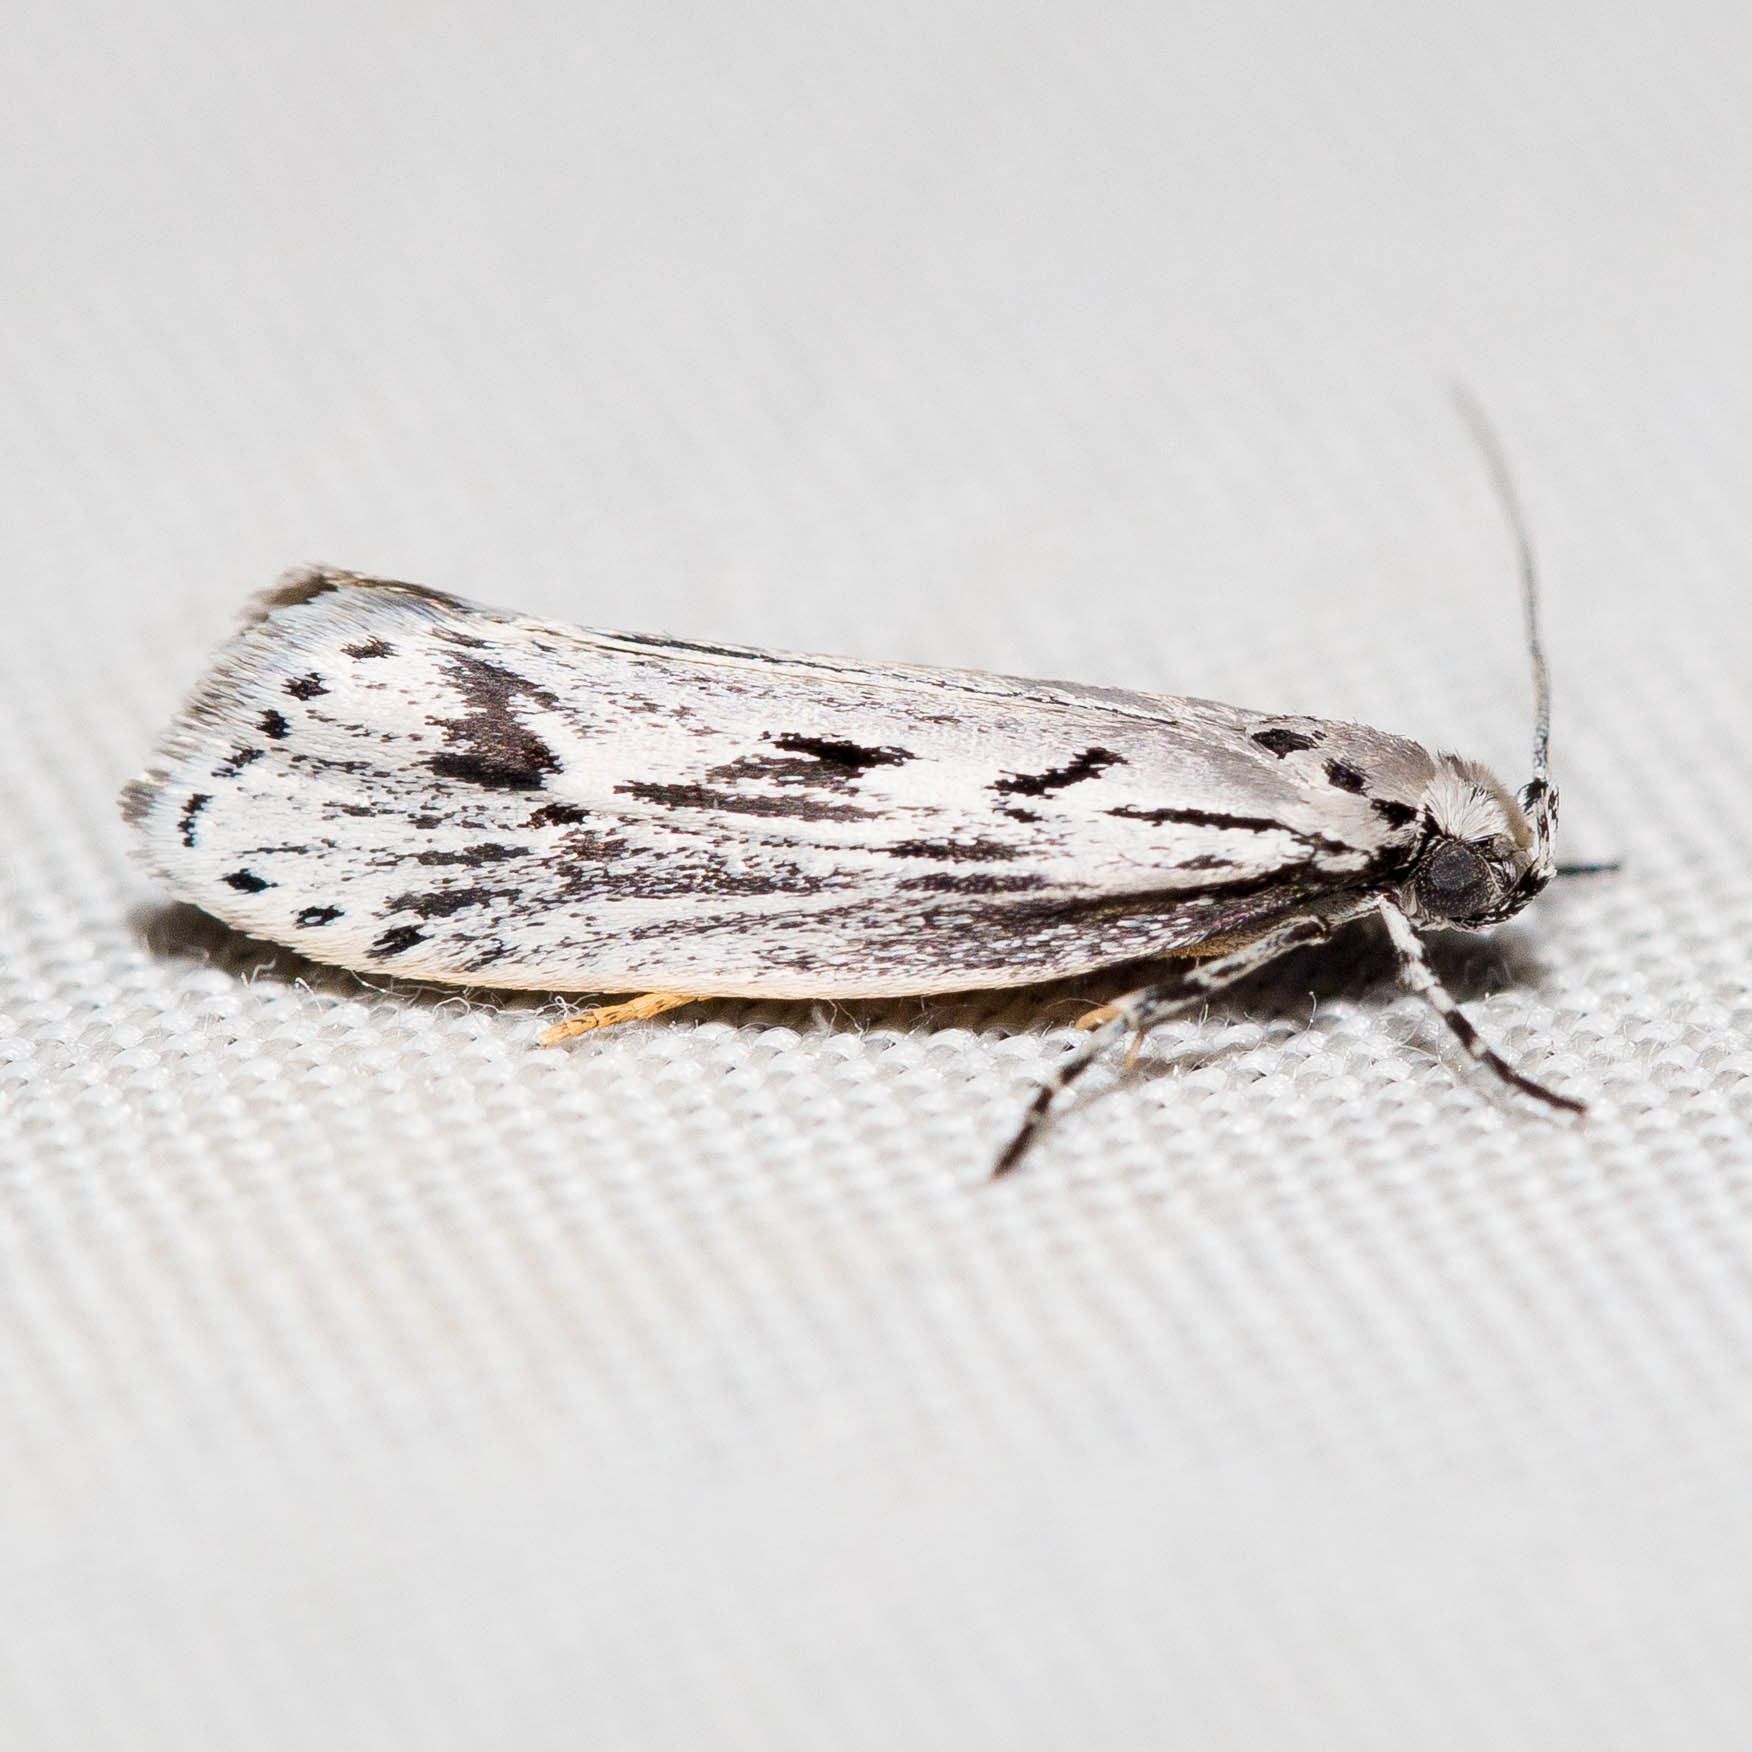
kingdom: Animalia
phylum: Arthropoda
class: Insecta
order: Lepidoptera
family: Ethmiidae
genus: Ethmia
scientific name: Ethmia discostrigella
